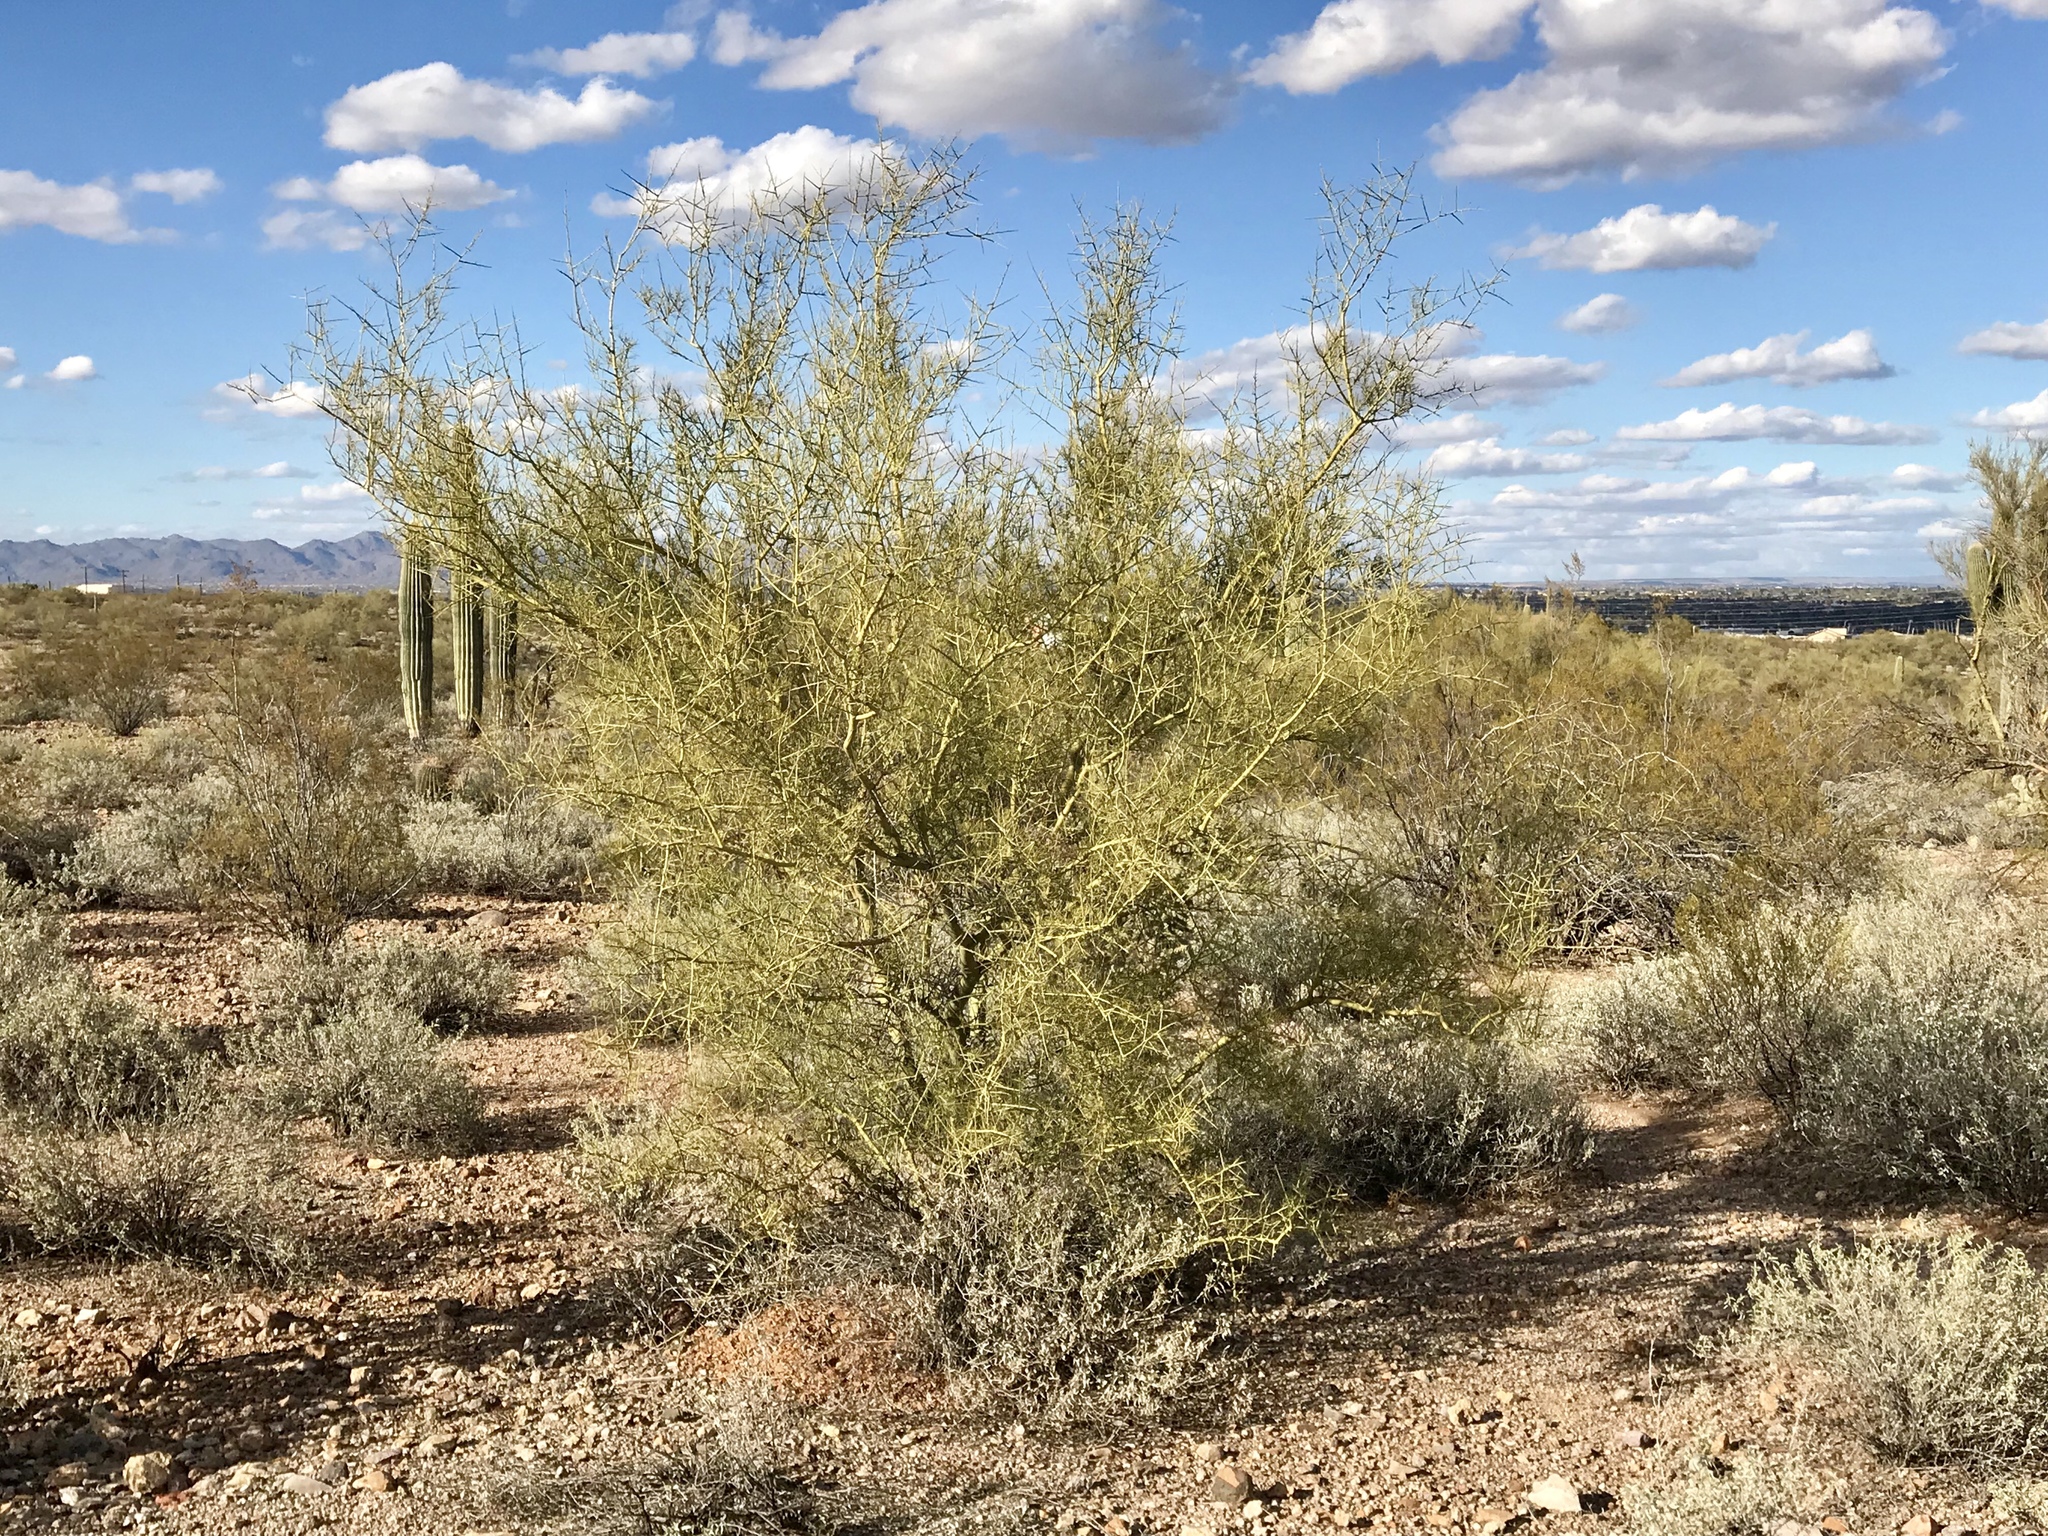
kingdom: Plantae
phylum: Tracheophyta
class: Magnoliopsida
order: Fabales
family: Fabaceae
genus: Parkinsonia
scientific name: Parkinsonia microphylla
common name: Yellow paloverde
